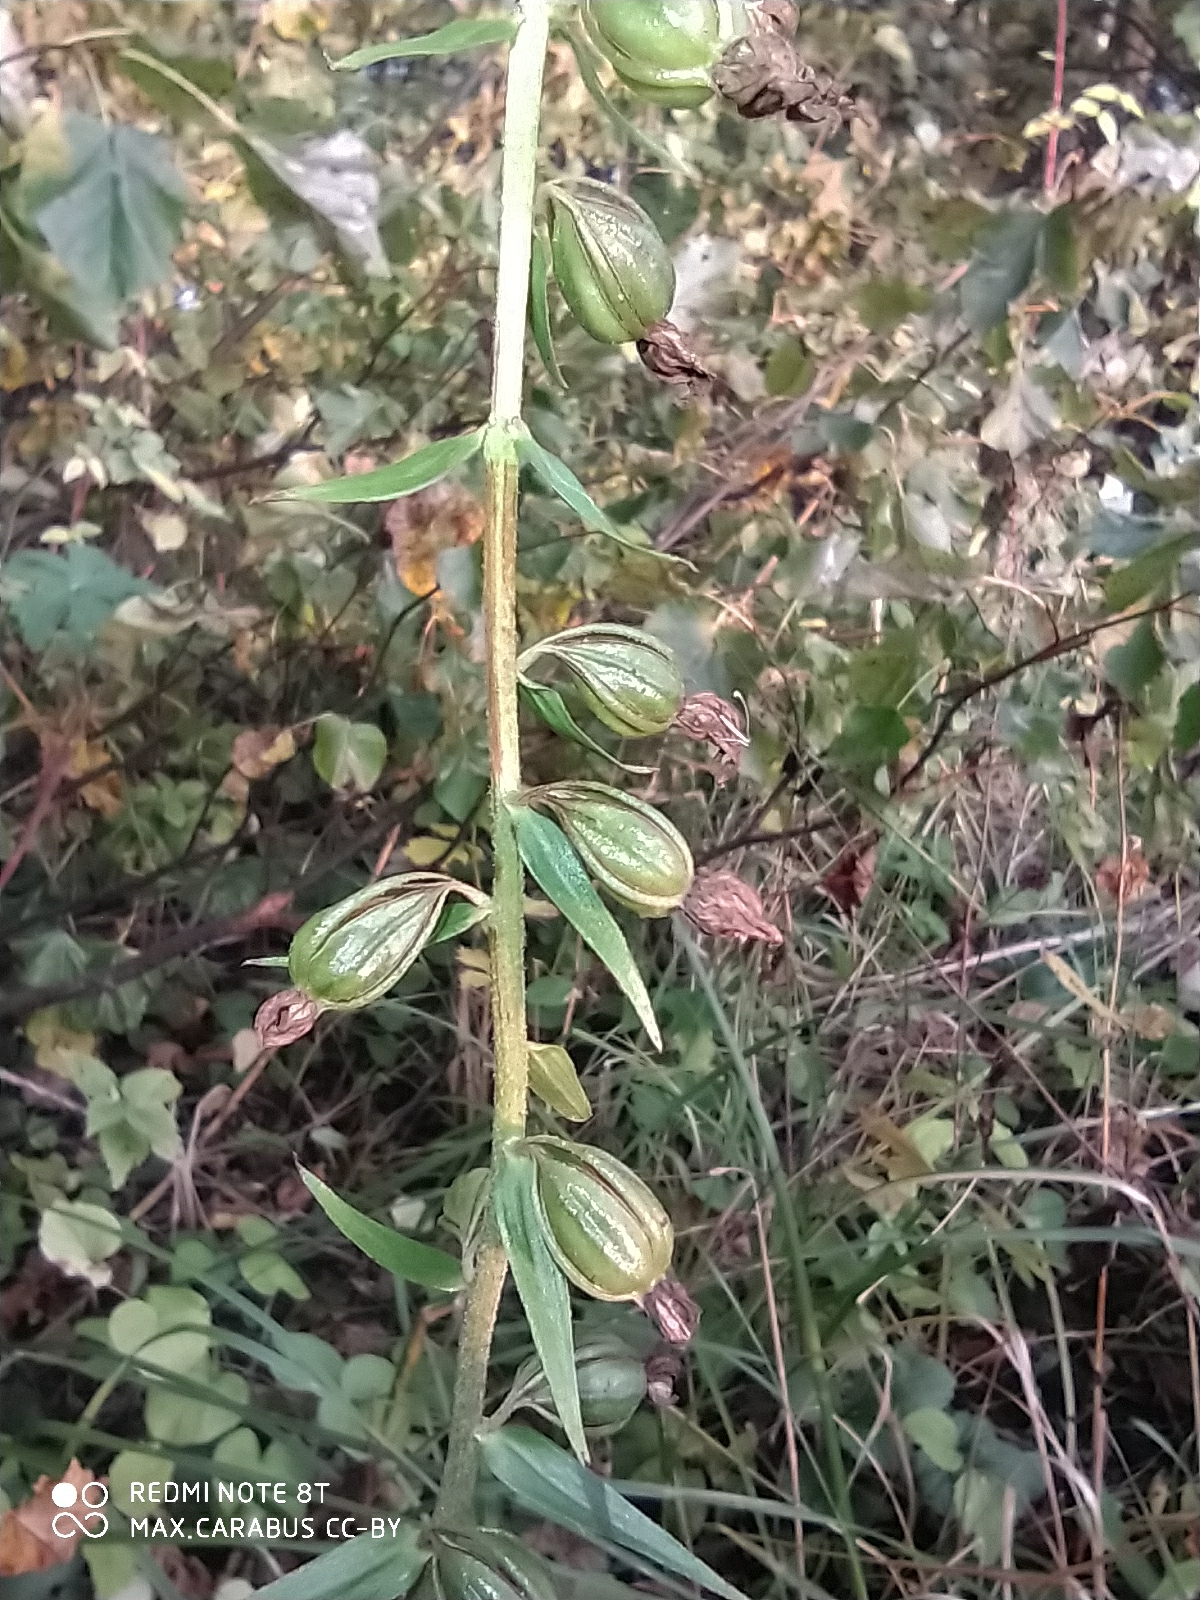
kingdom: Plantae
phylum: Tracheophyta
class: Liliopsida
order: Asparagales
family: Orchidaceae
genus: Epipactis
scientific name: Epipactis helleborine
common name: Broad-leaved helleborine
